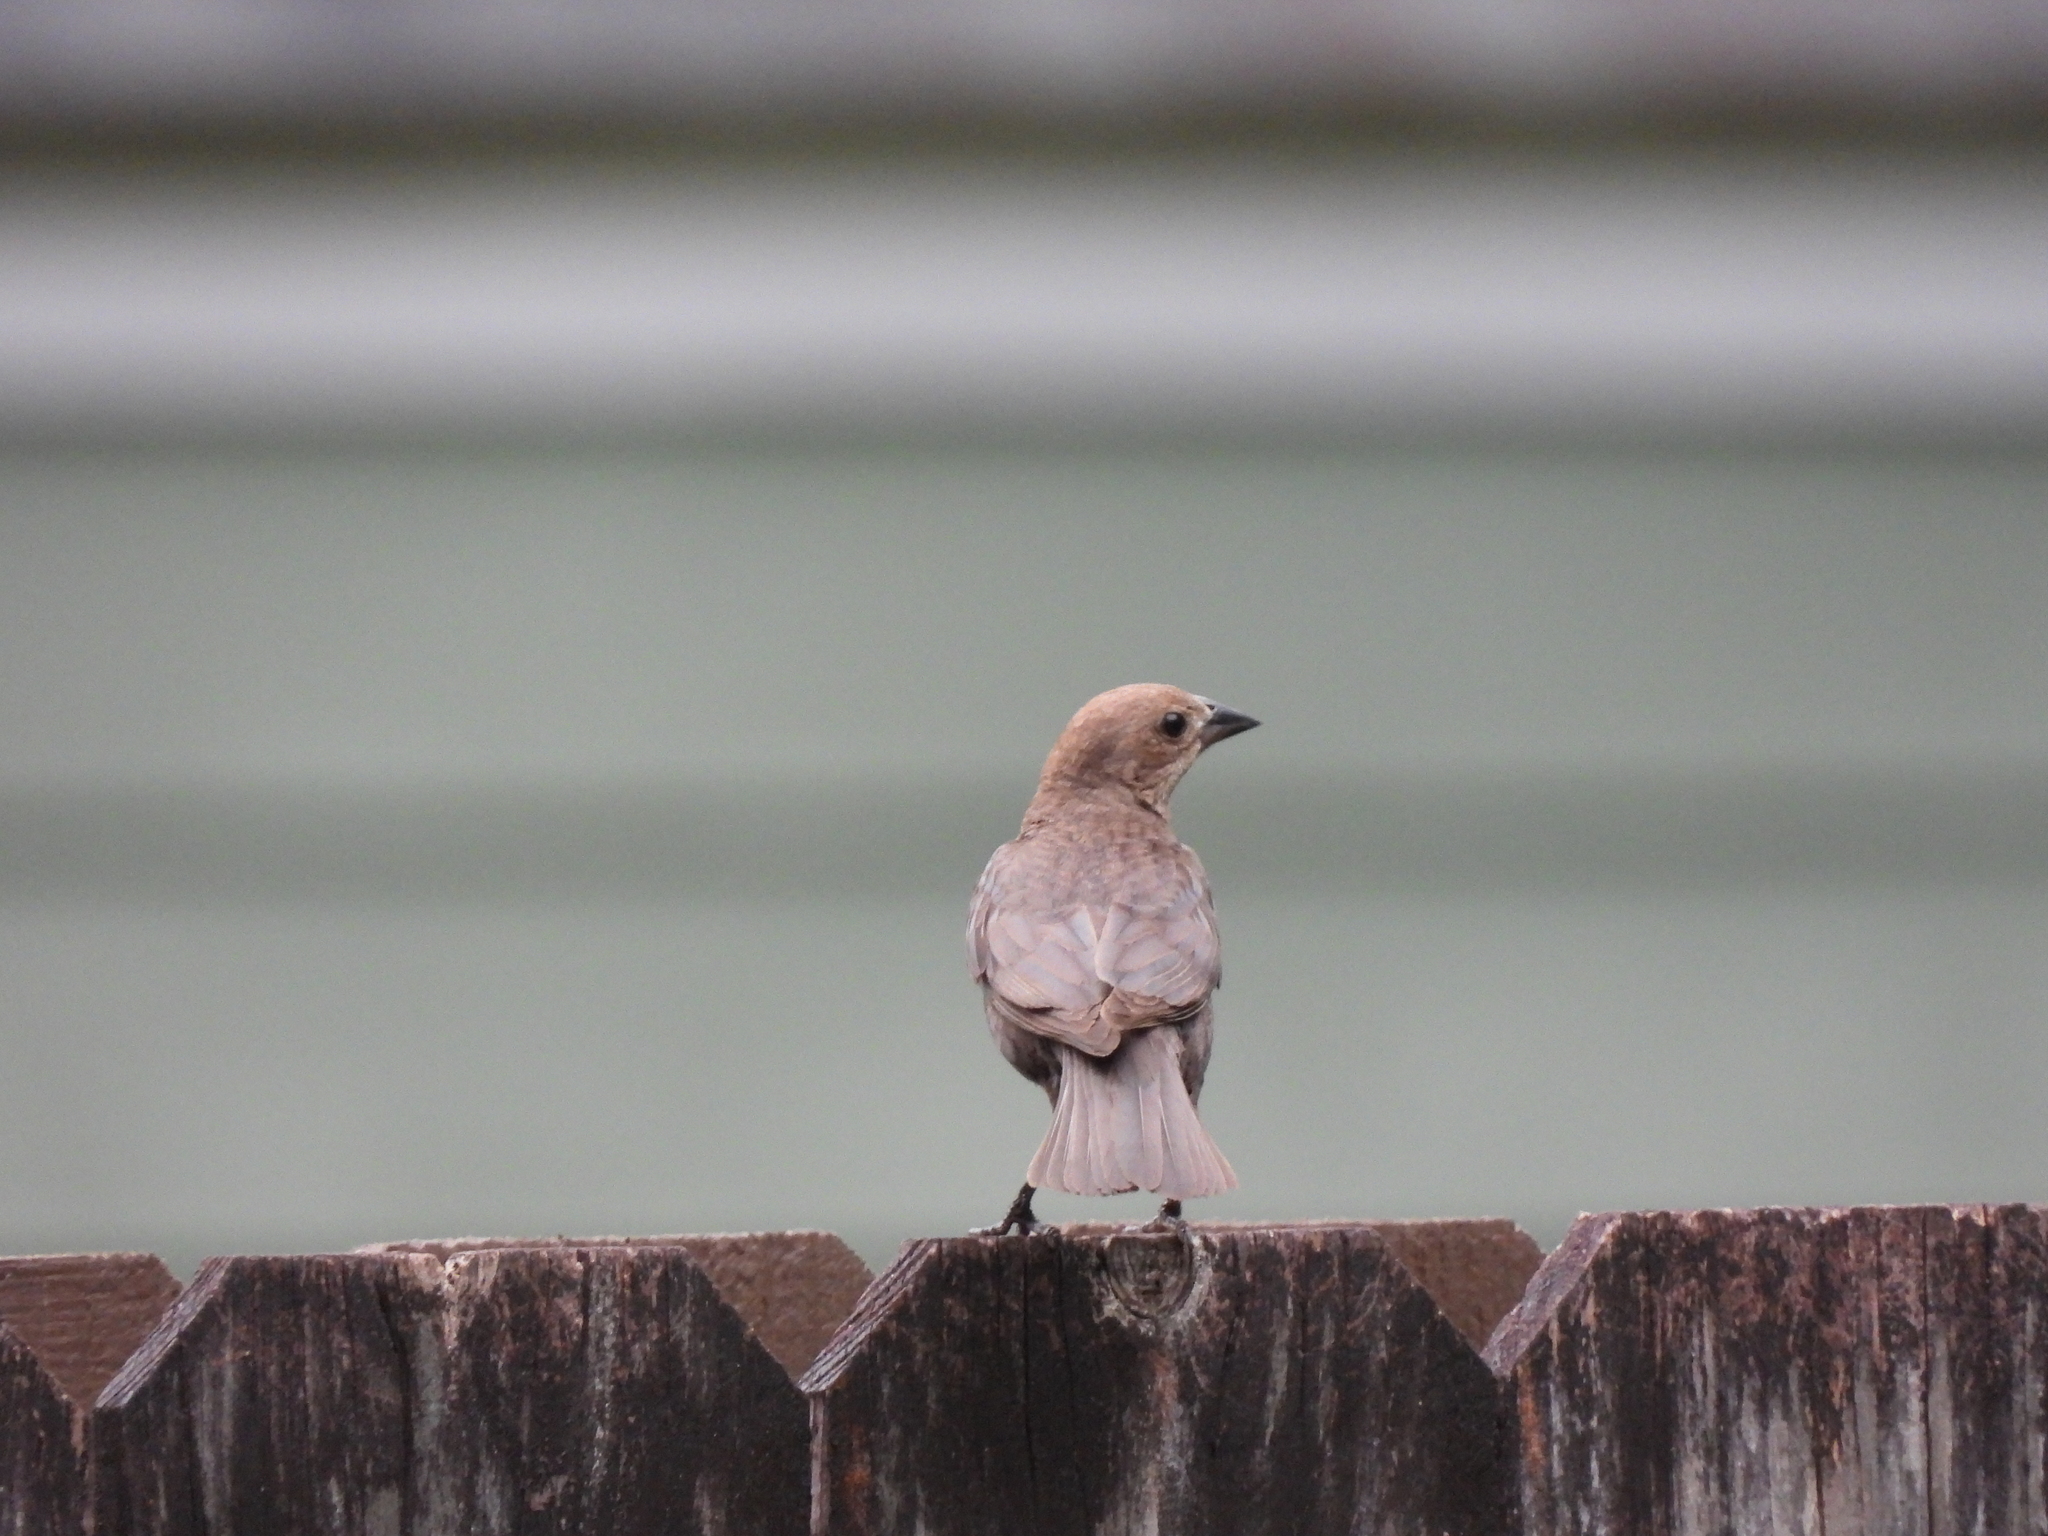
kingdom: Animalia
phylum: Chordata
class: Aves
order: Passeriformes
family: Icteridae
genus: Molothrus
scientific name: Molothrus ater
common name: Brown-headed cowbird
